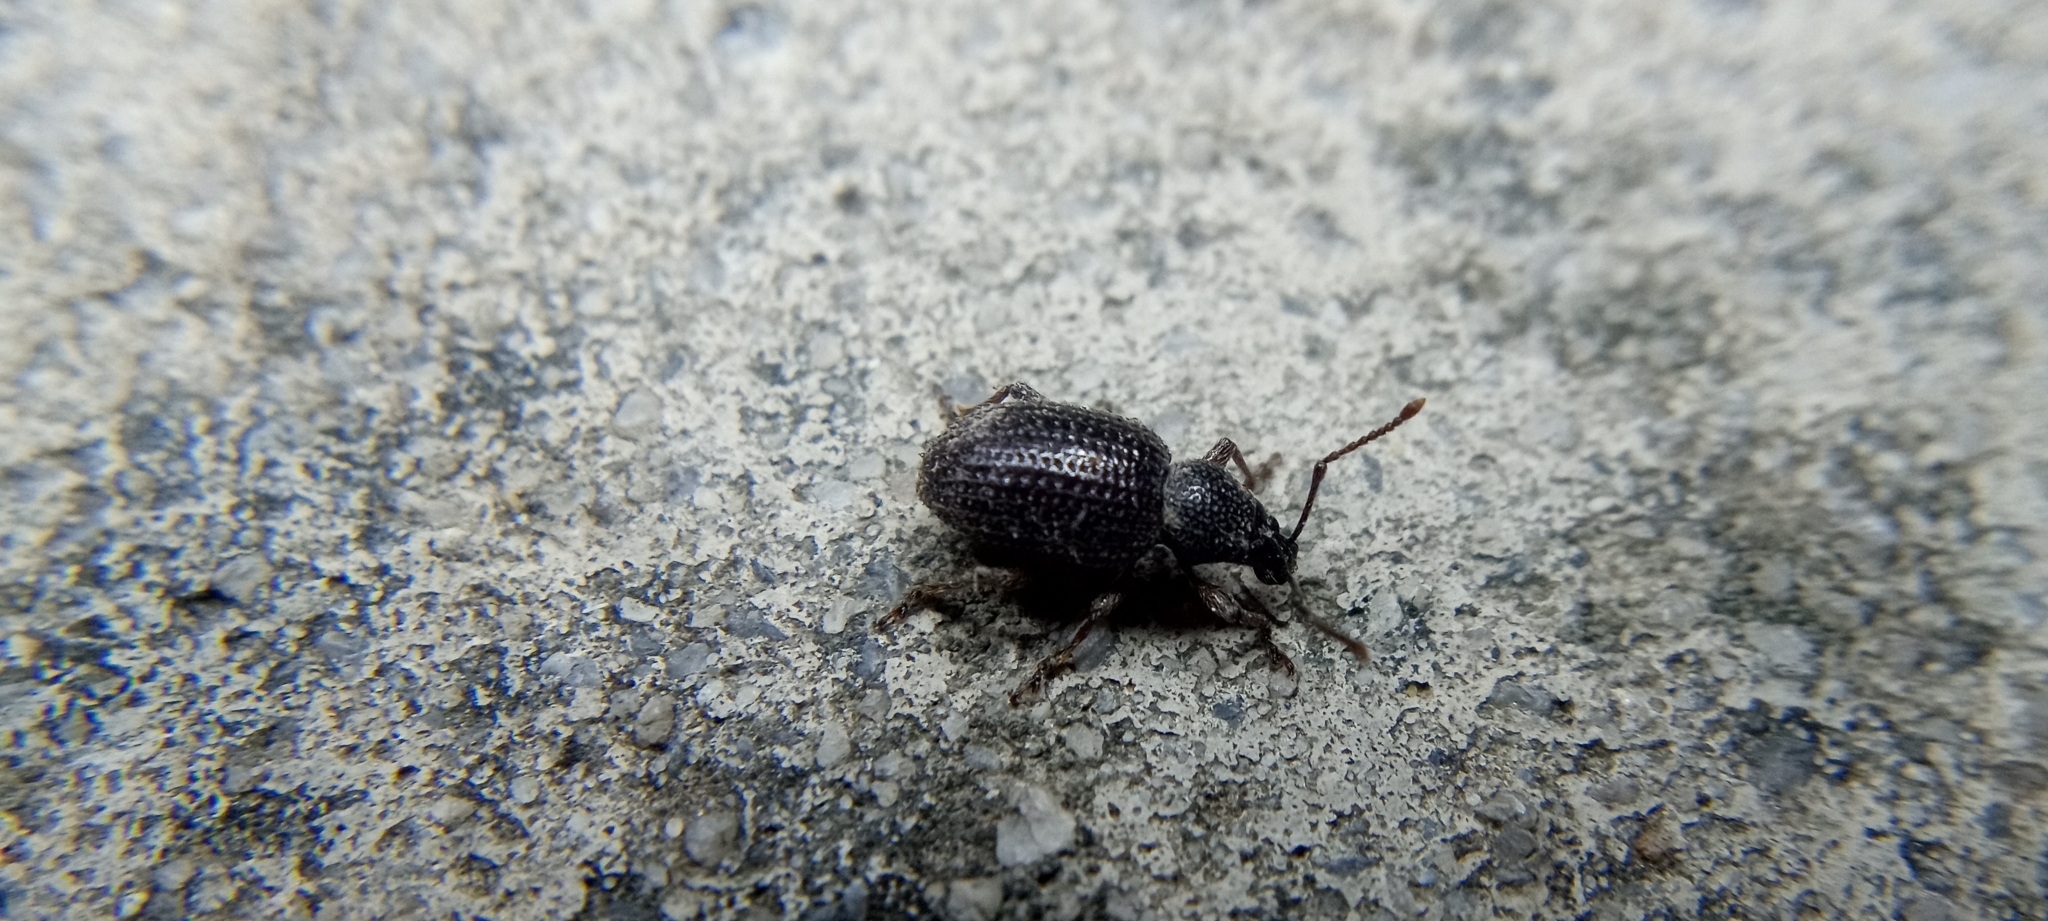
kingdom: Animalia
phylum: Arthropoda
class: Insecta
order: Coleoptera
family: Curculionidae
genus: Otiorhynchus
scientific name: Otiorhynchus cribricollis
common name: Weevil
